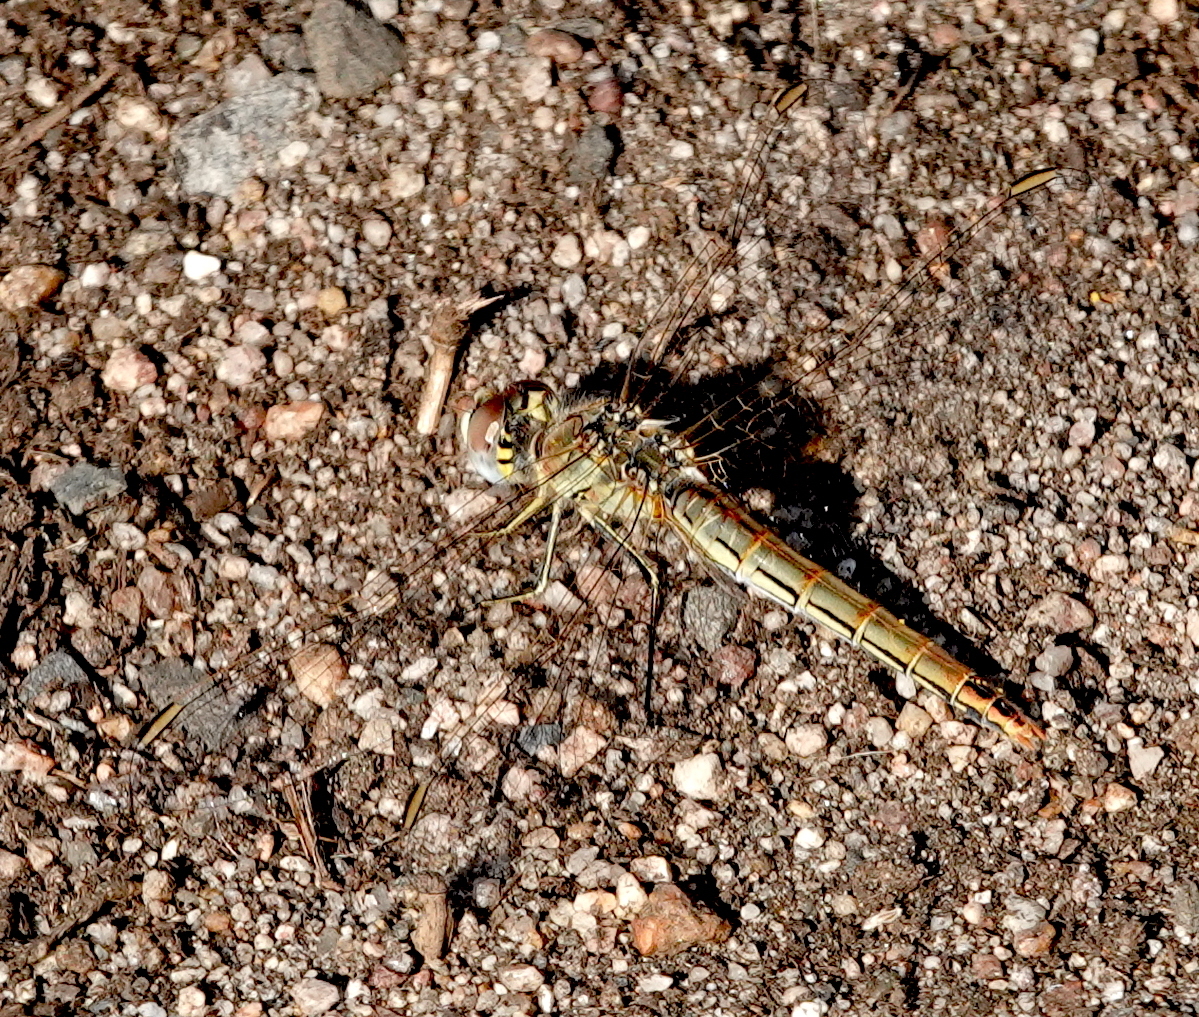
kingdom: Animalia
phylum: Arthropoda
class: Insecta
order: Odonata
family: Libellulidae
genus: Sympetrum
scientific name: Sympetrum fonscolombii
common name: Red-veined darter
